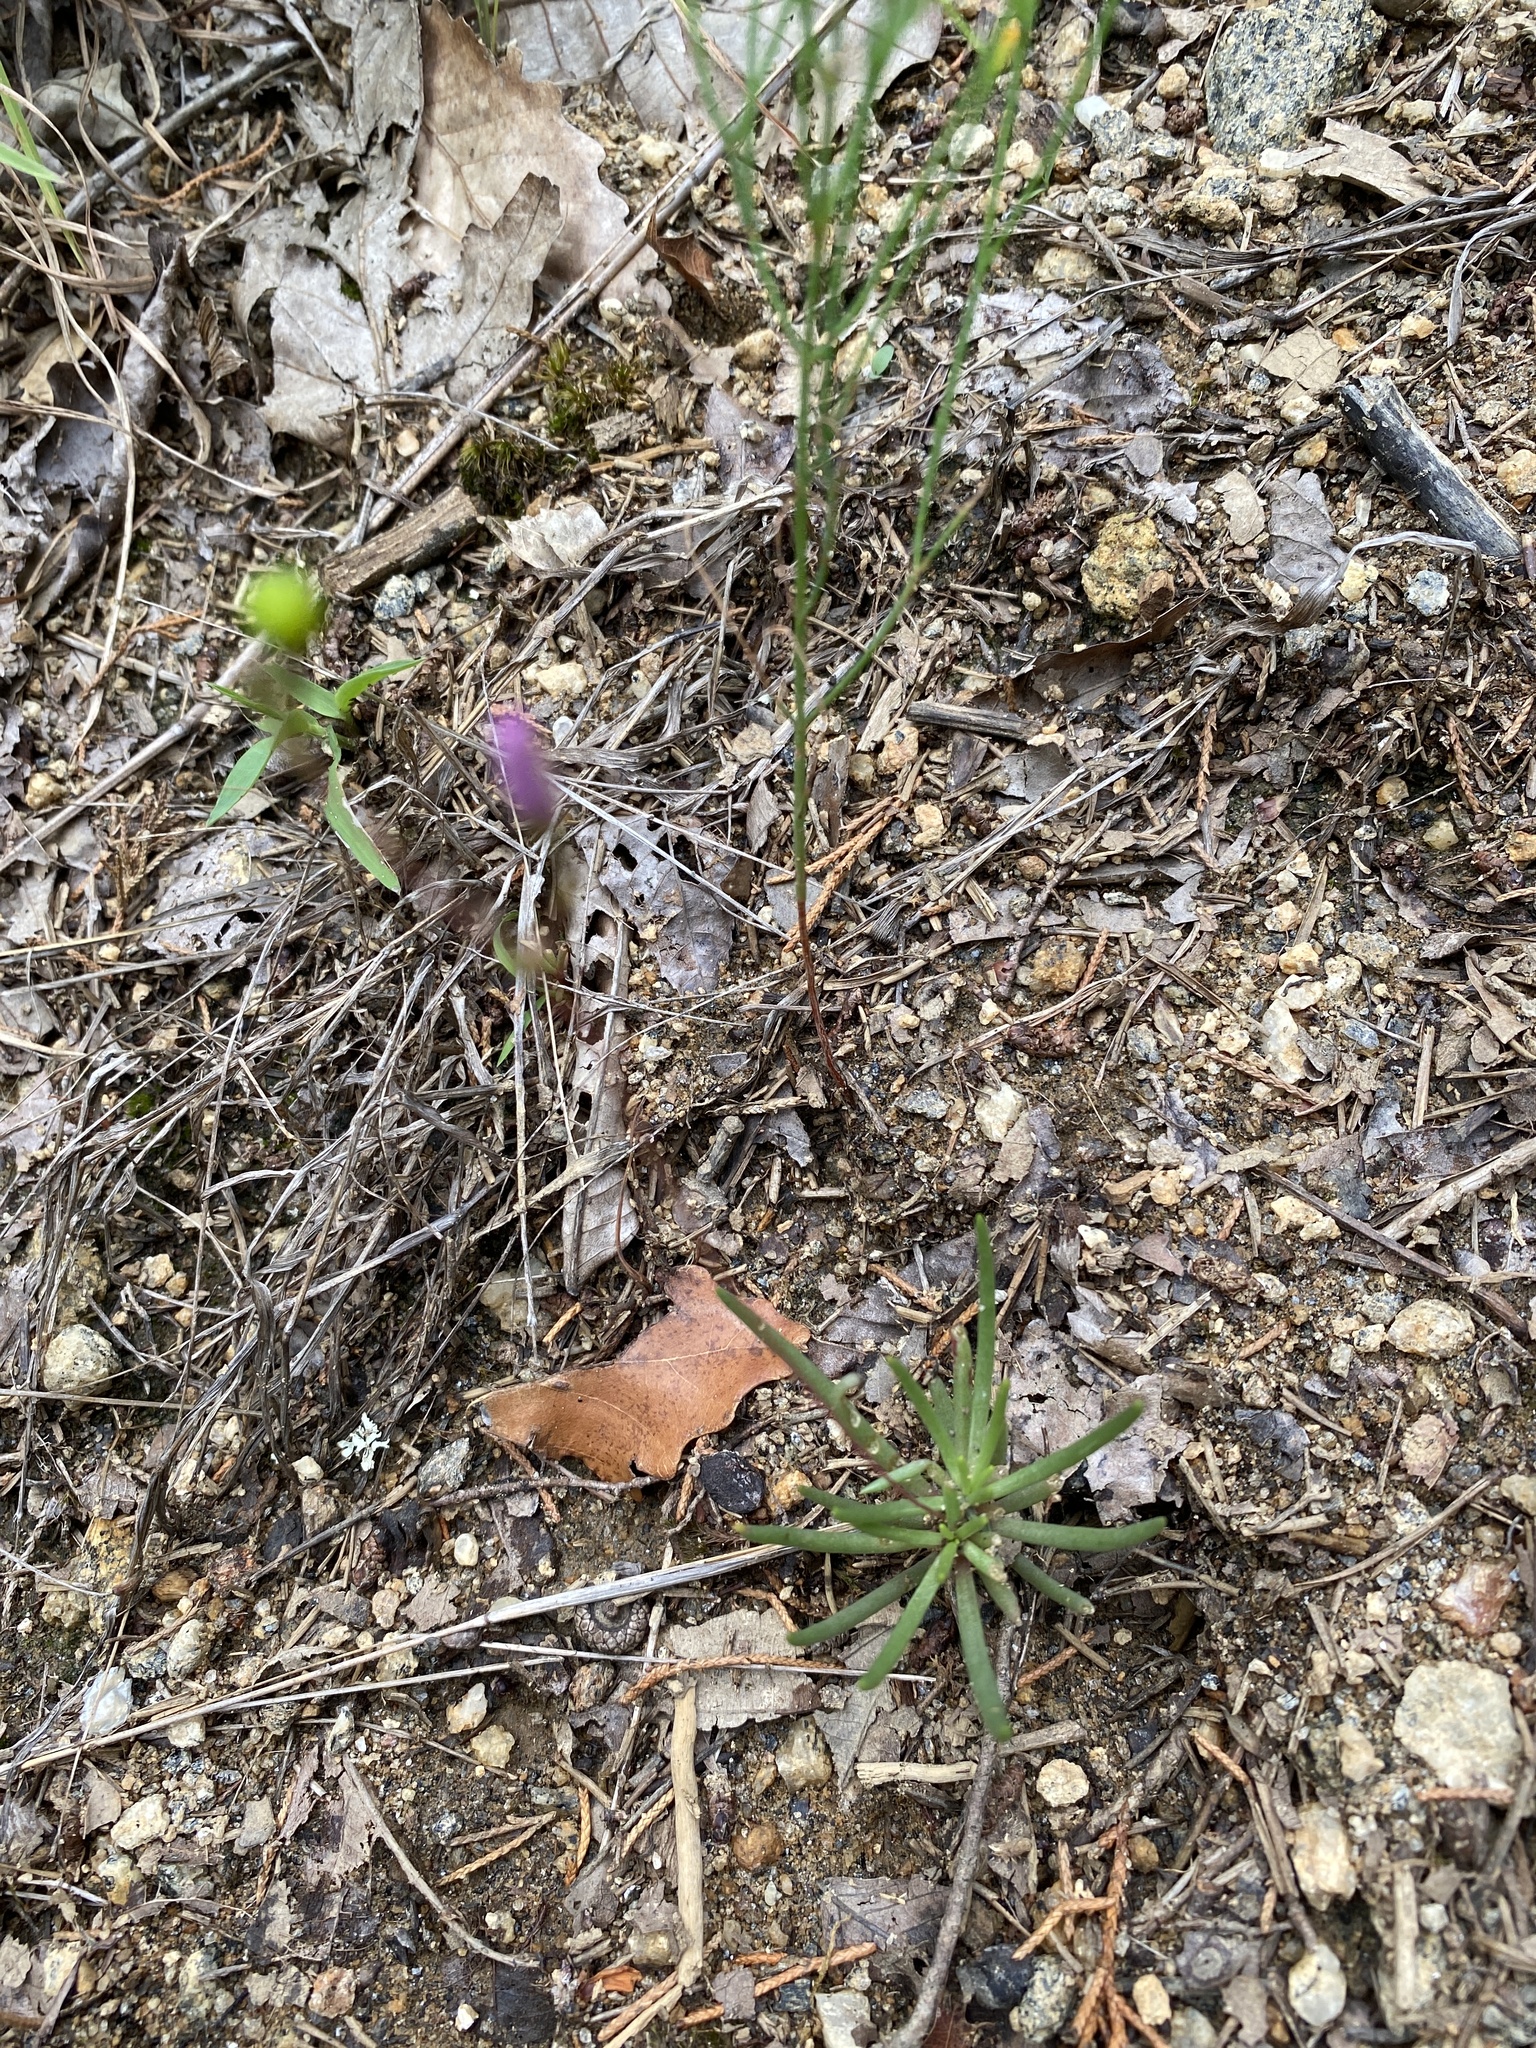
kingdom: Plantae
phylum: Tracheophyta
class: Magnoliopsida
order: Caryophyllales
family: Montiaceae
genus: Phemeranthus
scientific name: Phemeranthus teretifolius
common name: Quill fameflower
